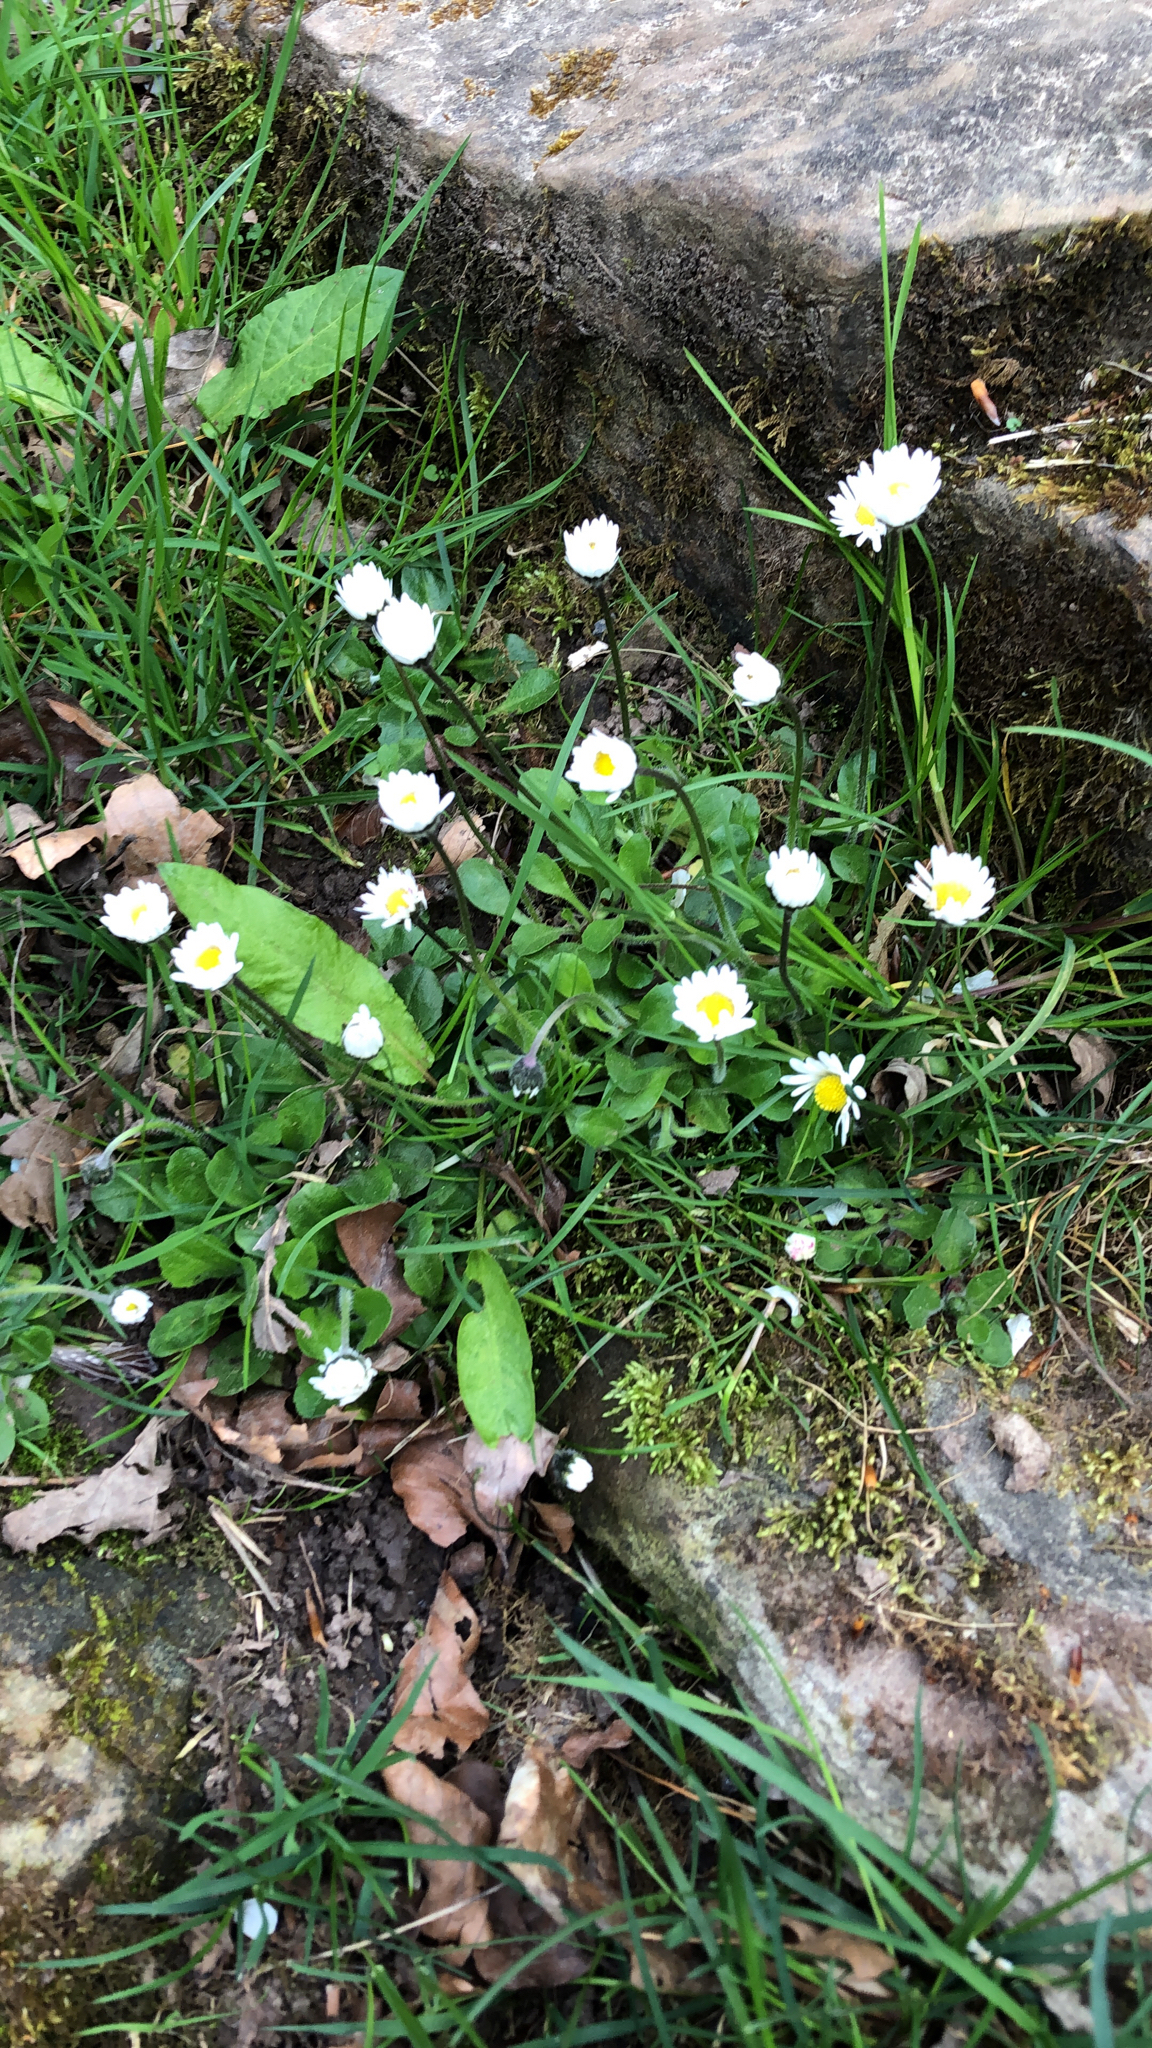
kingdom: Plantae
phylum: Tracheophyta
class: Magnoliopsida
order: Asterales
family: Asteraceae
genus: Bellis
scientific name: Bellis perennis
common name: Lawndaisy
